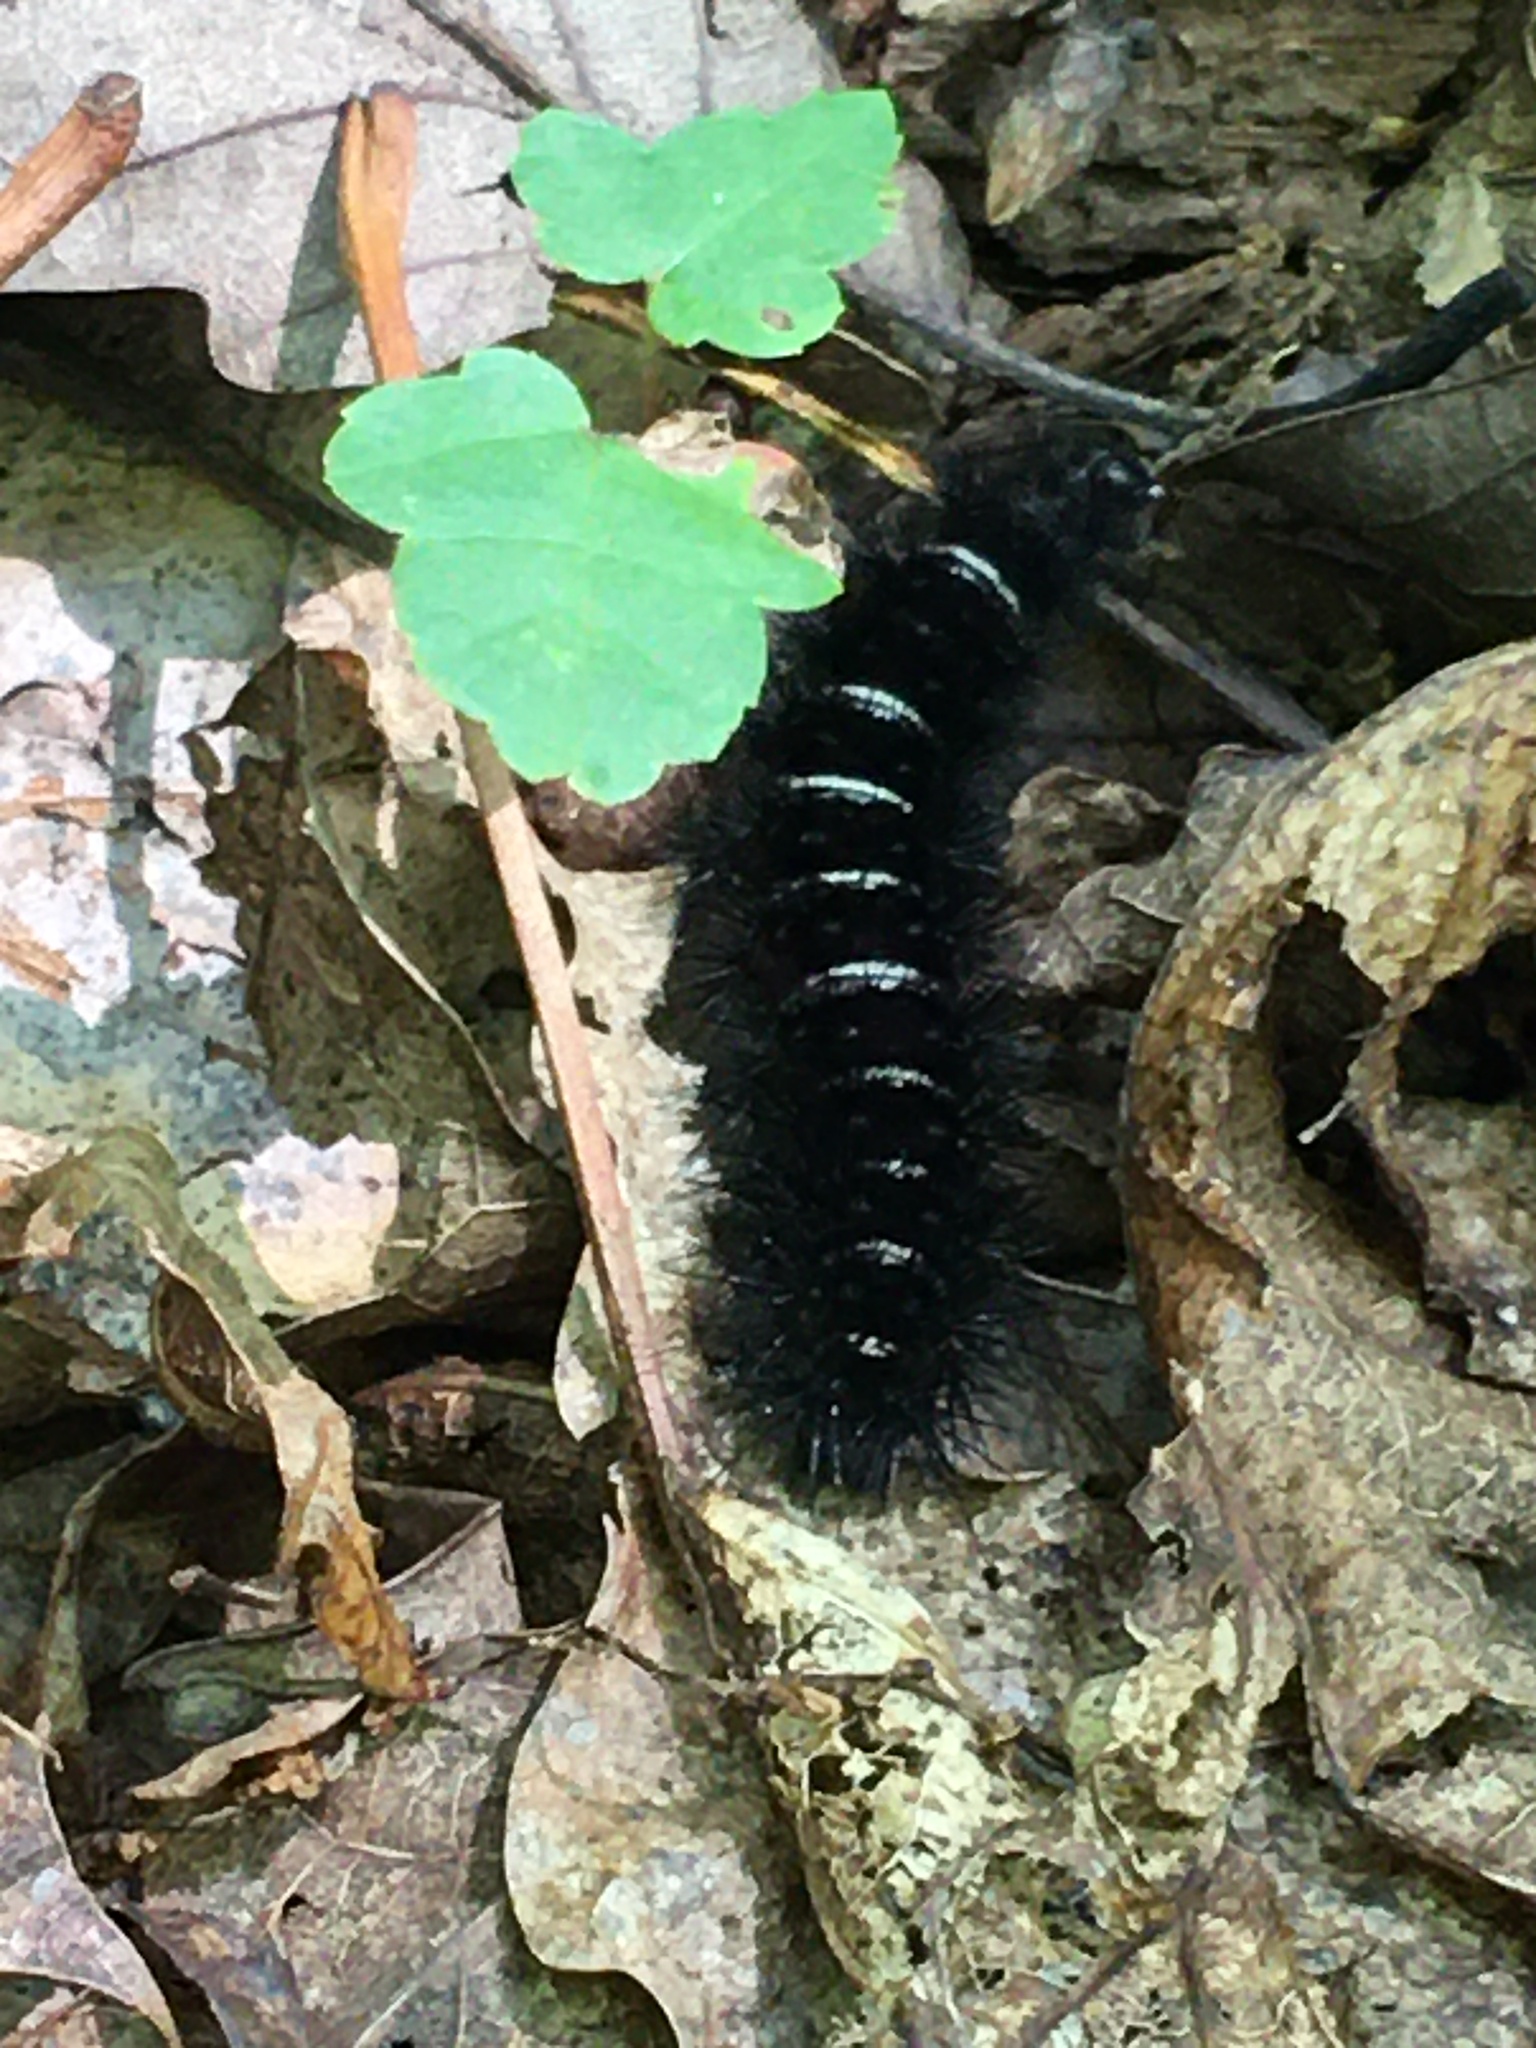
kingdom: Animalia
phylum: Arthropoda
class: Insecta
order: Lepidoptera
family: Erebidae
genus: Spilosoma
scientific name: Spilosoma congrua
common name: Agreeable tiger moth
